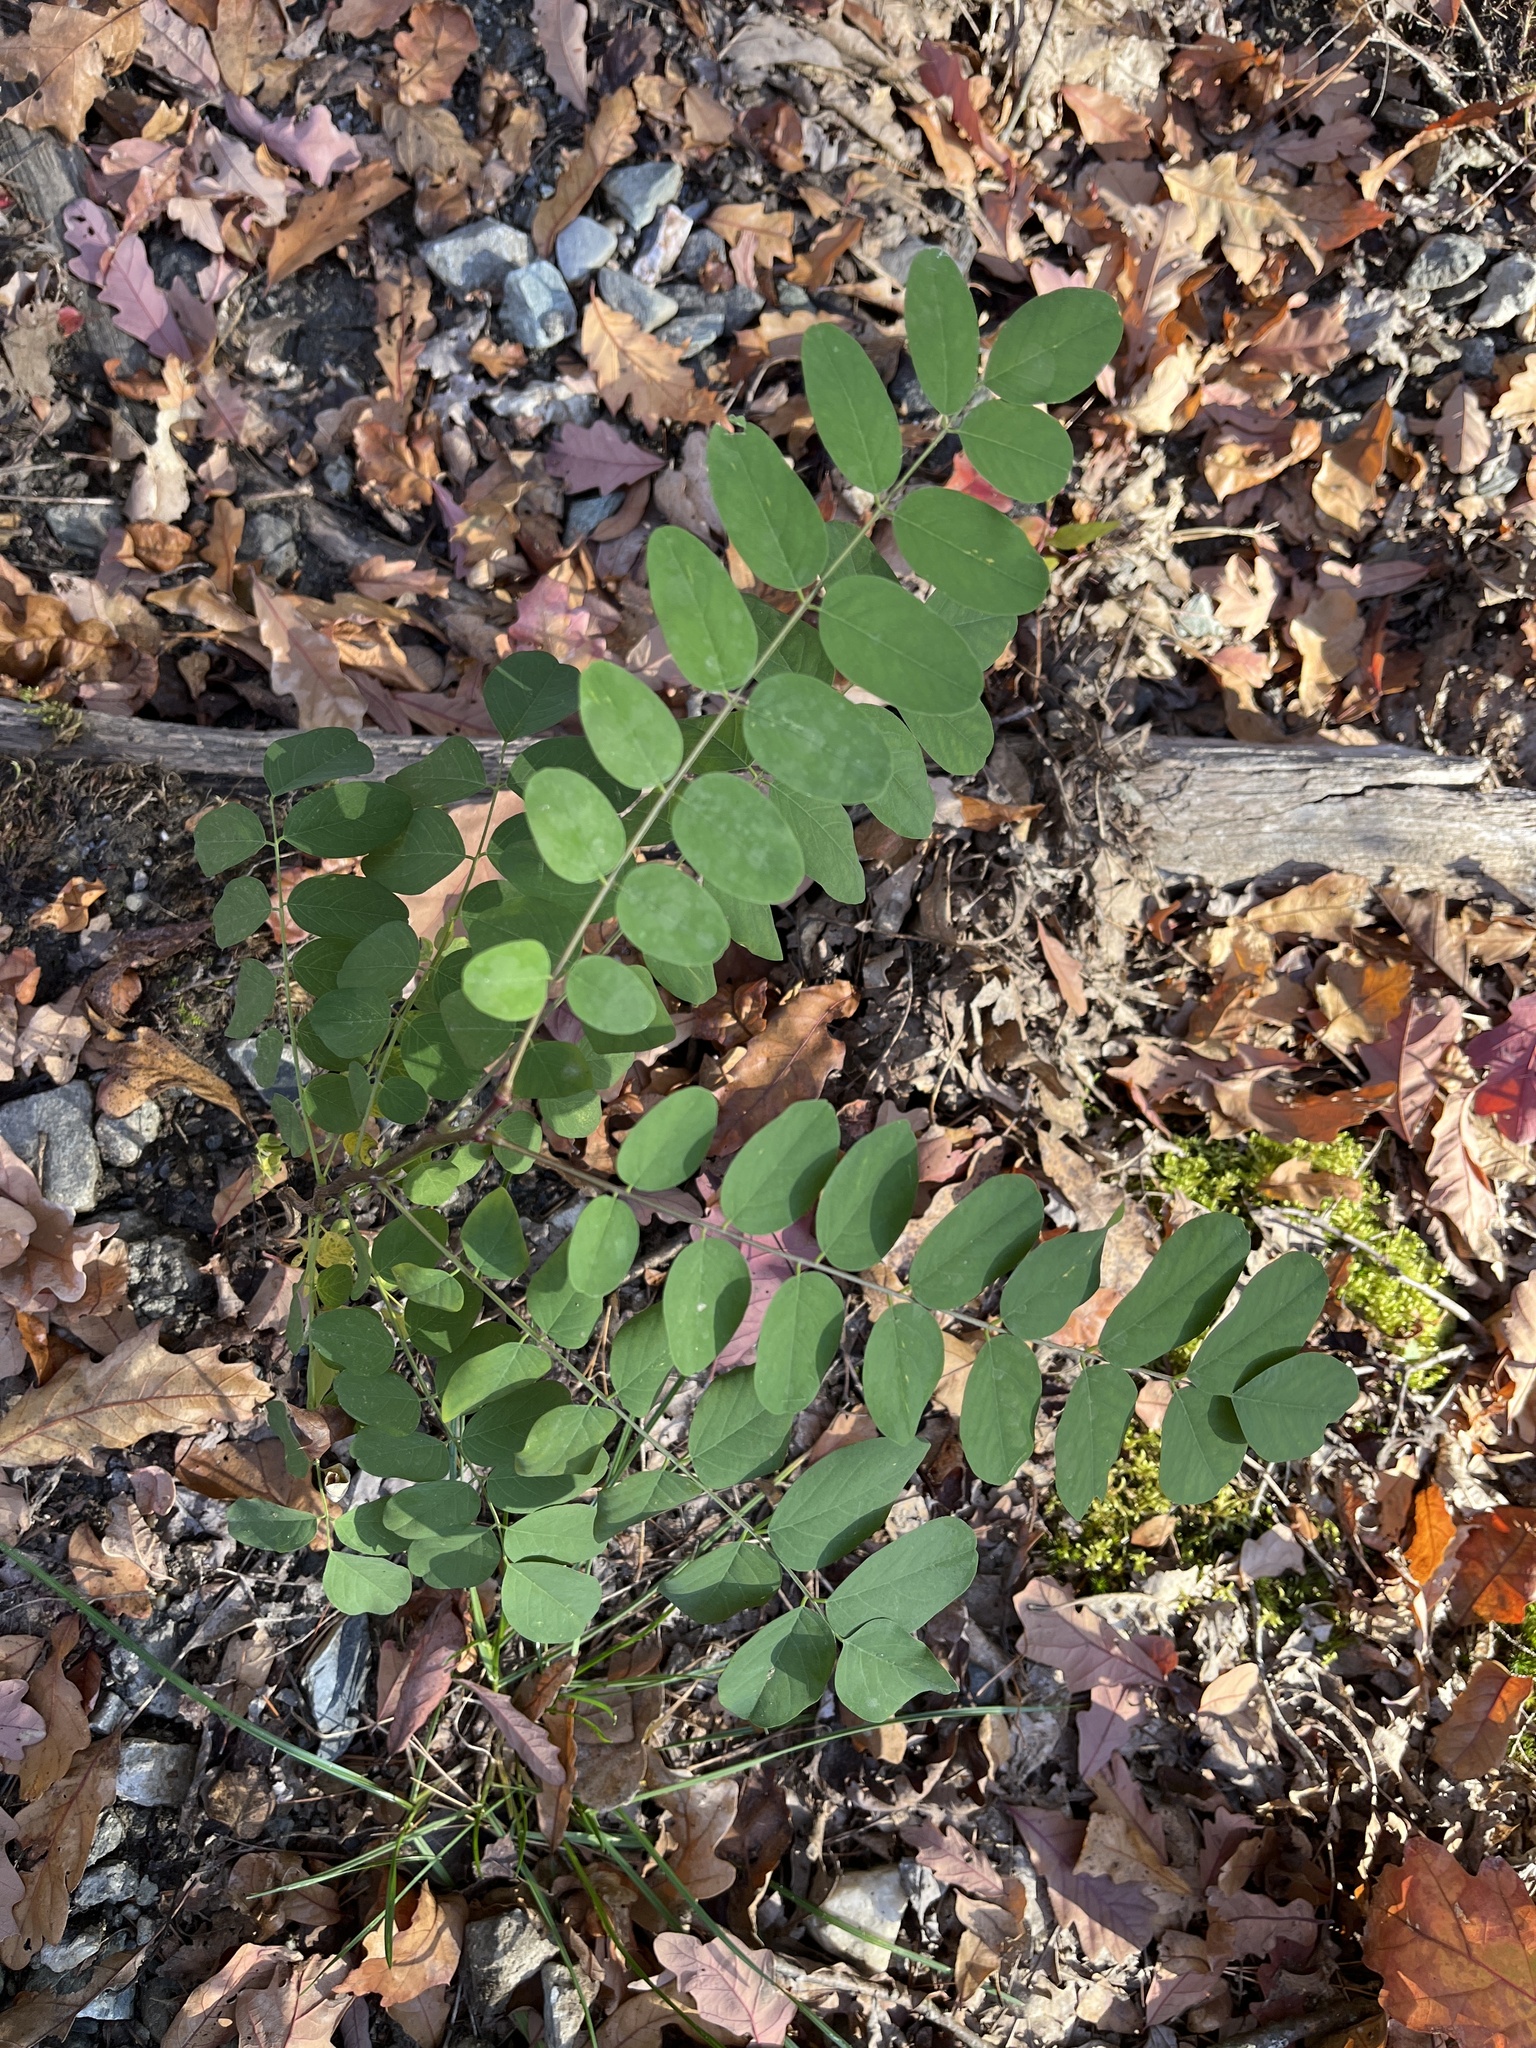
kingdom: Plantae
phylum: Tracheophyta
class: Magnoliopsida
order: Fabales
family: Fabaceae
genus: Robinia
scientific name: Robinia pseudoacacia
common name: Black locust
